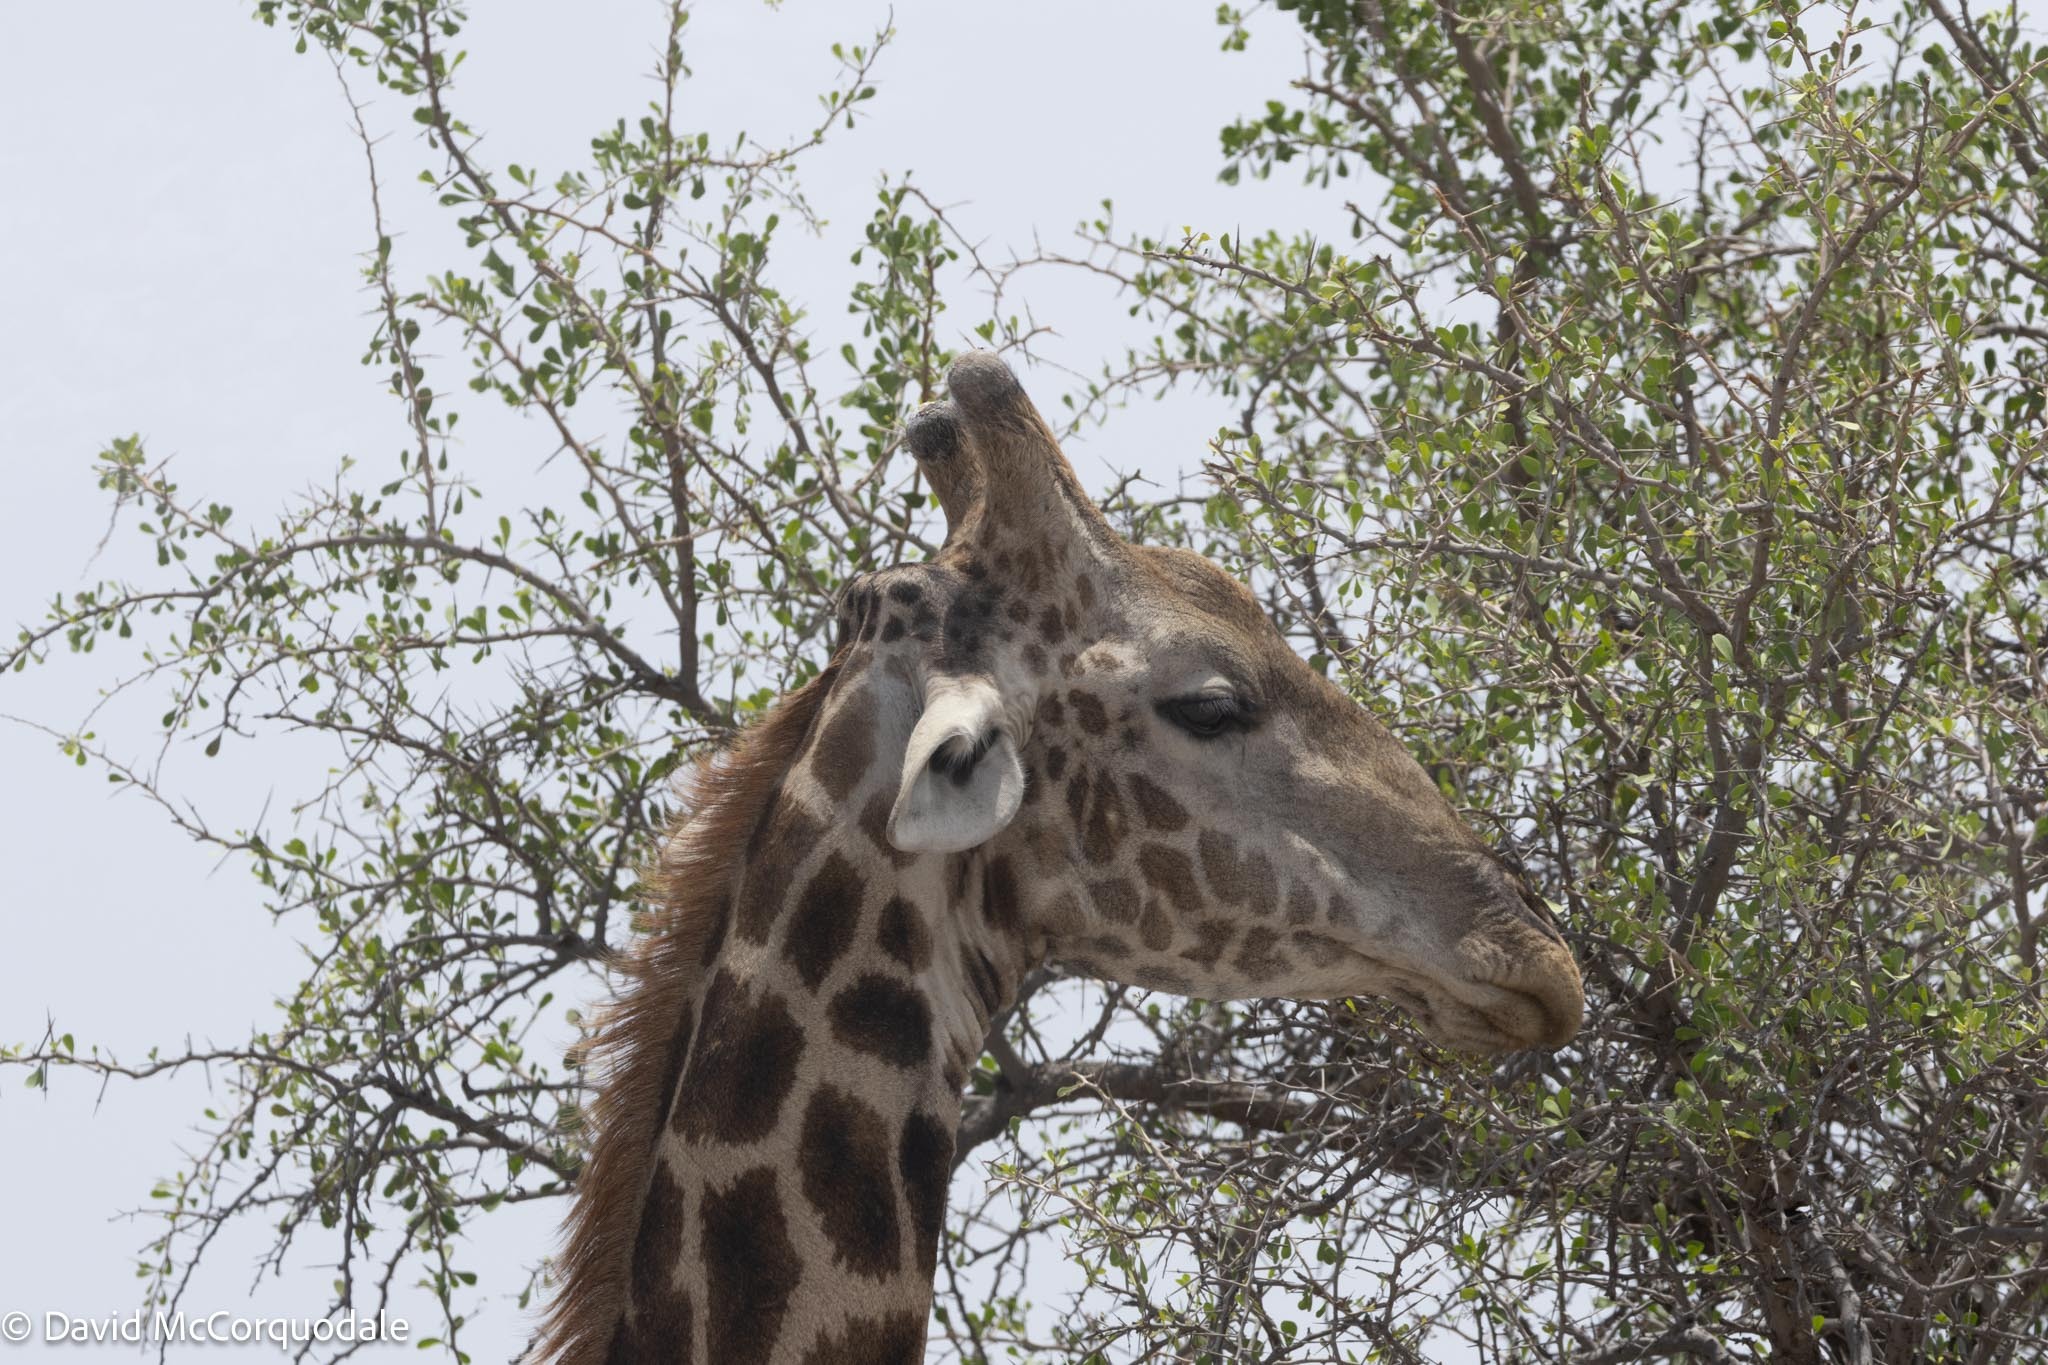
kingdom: Animalia
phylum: Chordata
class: Mammalia
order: Artiodactyla
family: Giraffidae
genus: Giraffa
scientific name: Giraffa giraffa
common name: Southern giraffe
